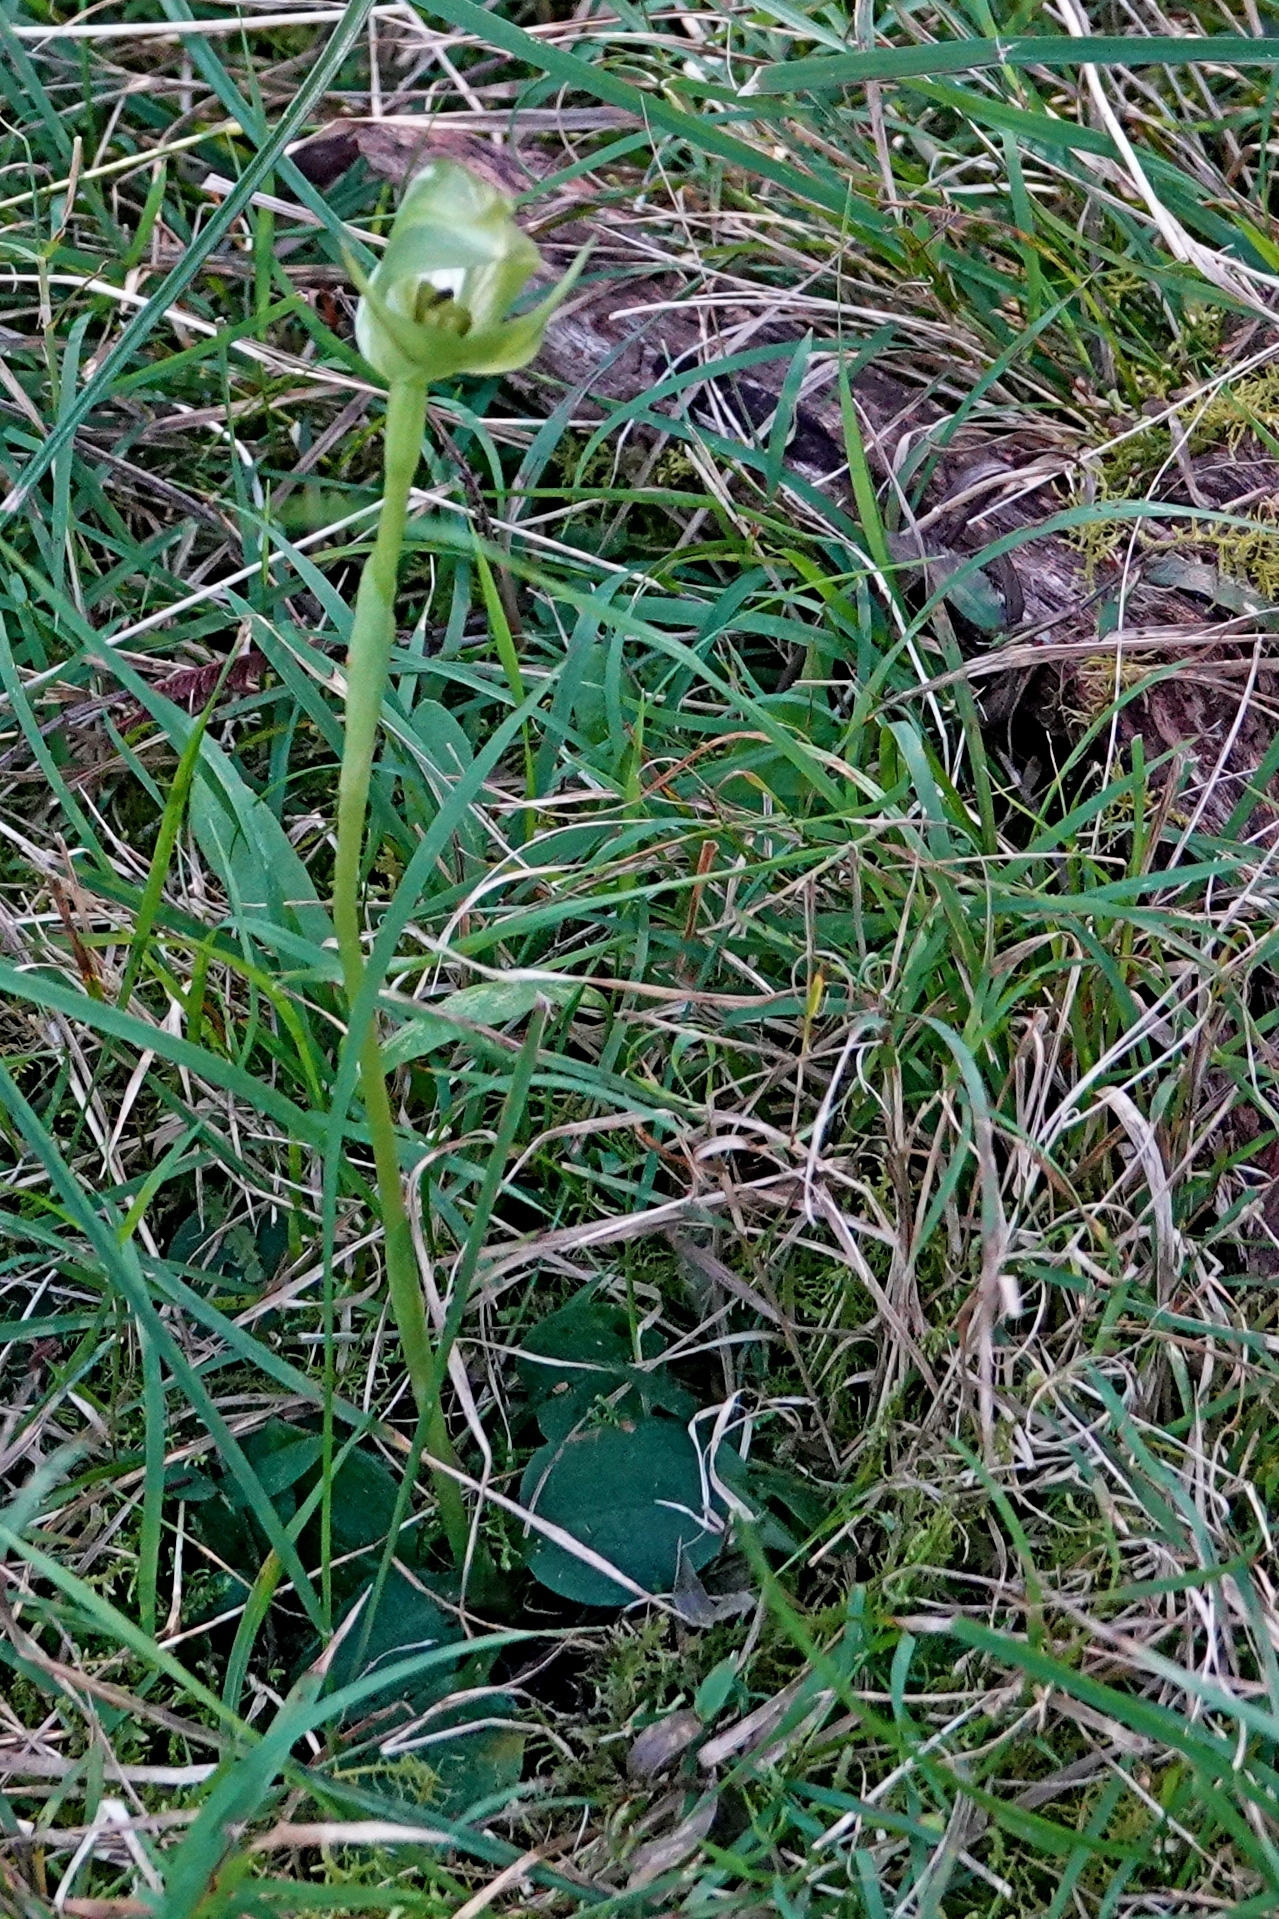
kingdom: Plantae
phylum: Tracheophyta
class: Liliopsida
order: Asparagales
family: Orchidaceae
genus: Pterostylis
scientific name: Pterostylis curta
